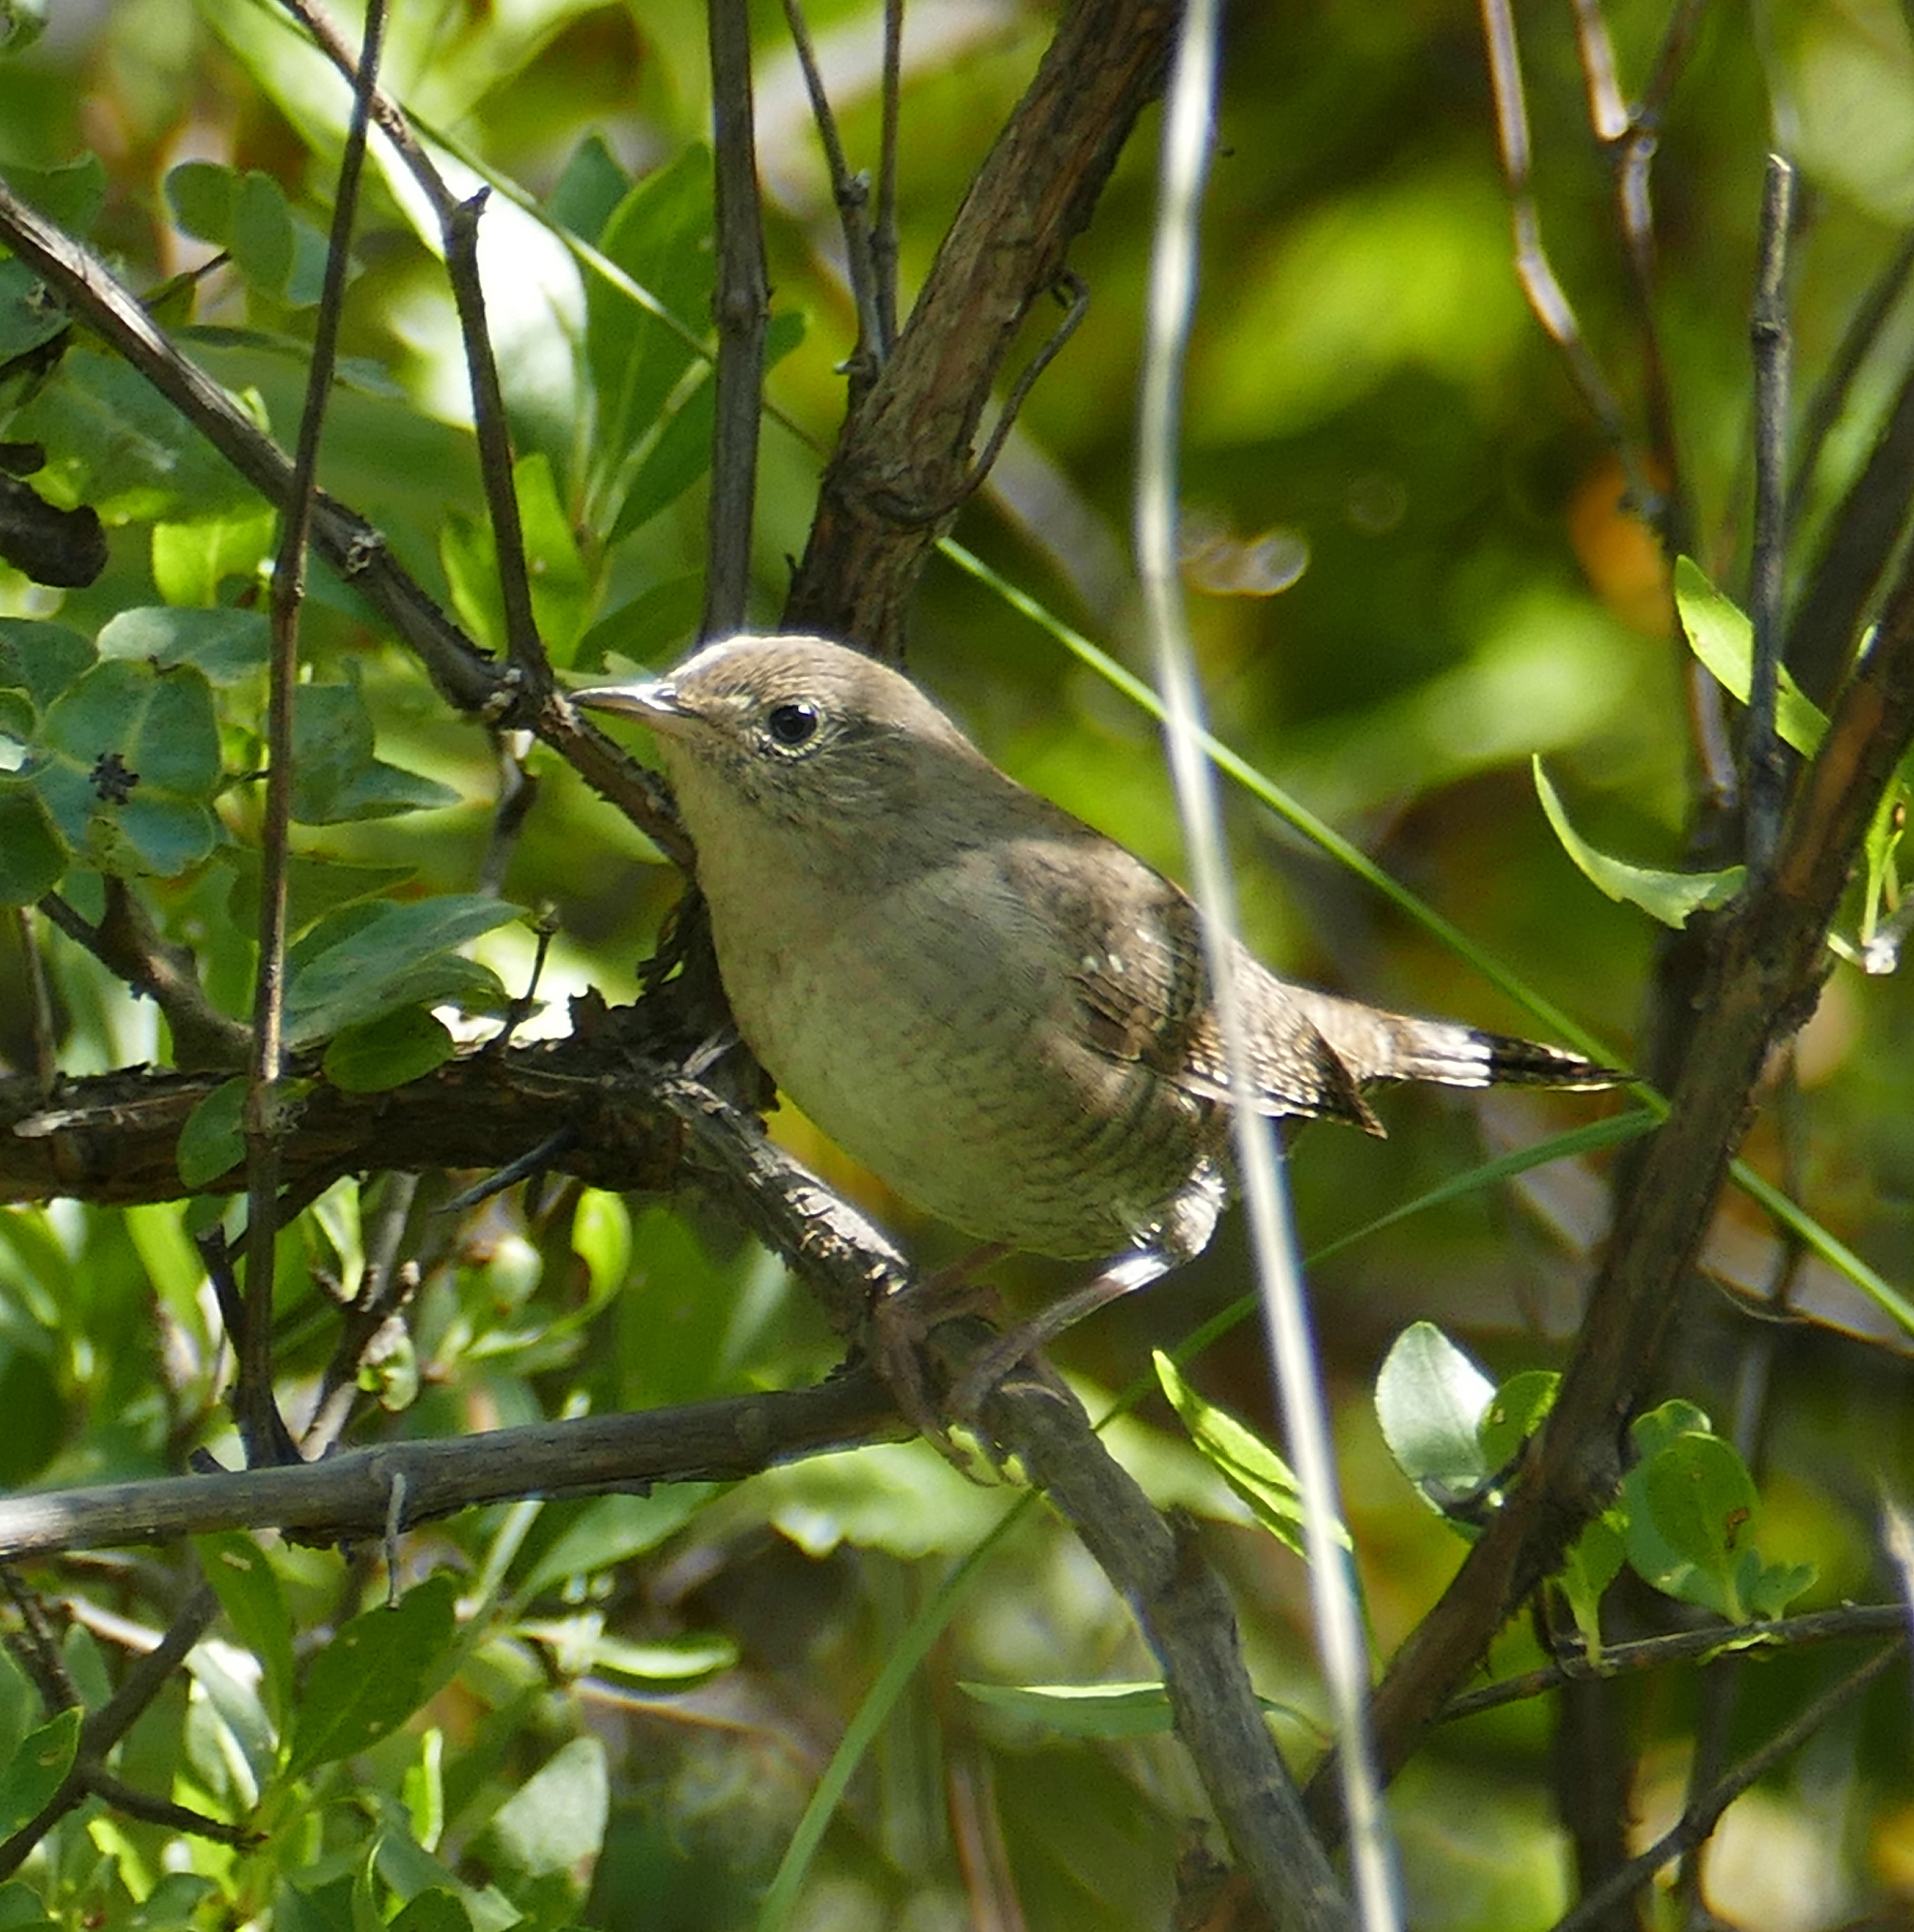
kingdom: Animalia
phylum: Chordata
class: Aves
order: Passeriformes
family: Troglodytidae
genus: Troglodytes
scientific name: Troglodytes aedon
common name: House wren
